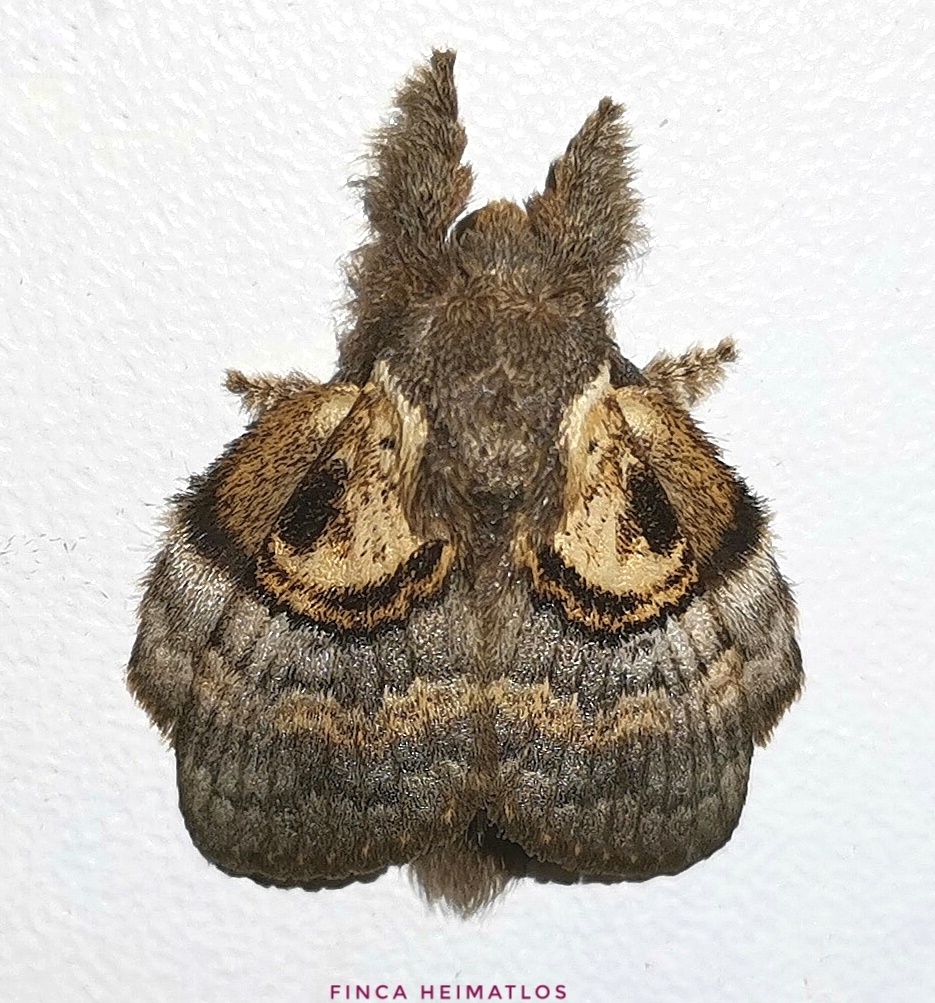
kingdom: Animalia
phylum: Arthropoda
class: Insecta
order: Lepidoptera
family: Lasiocampidae
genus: Euglyphis
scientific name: Euglyphis egra
